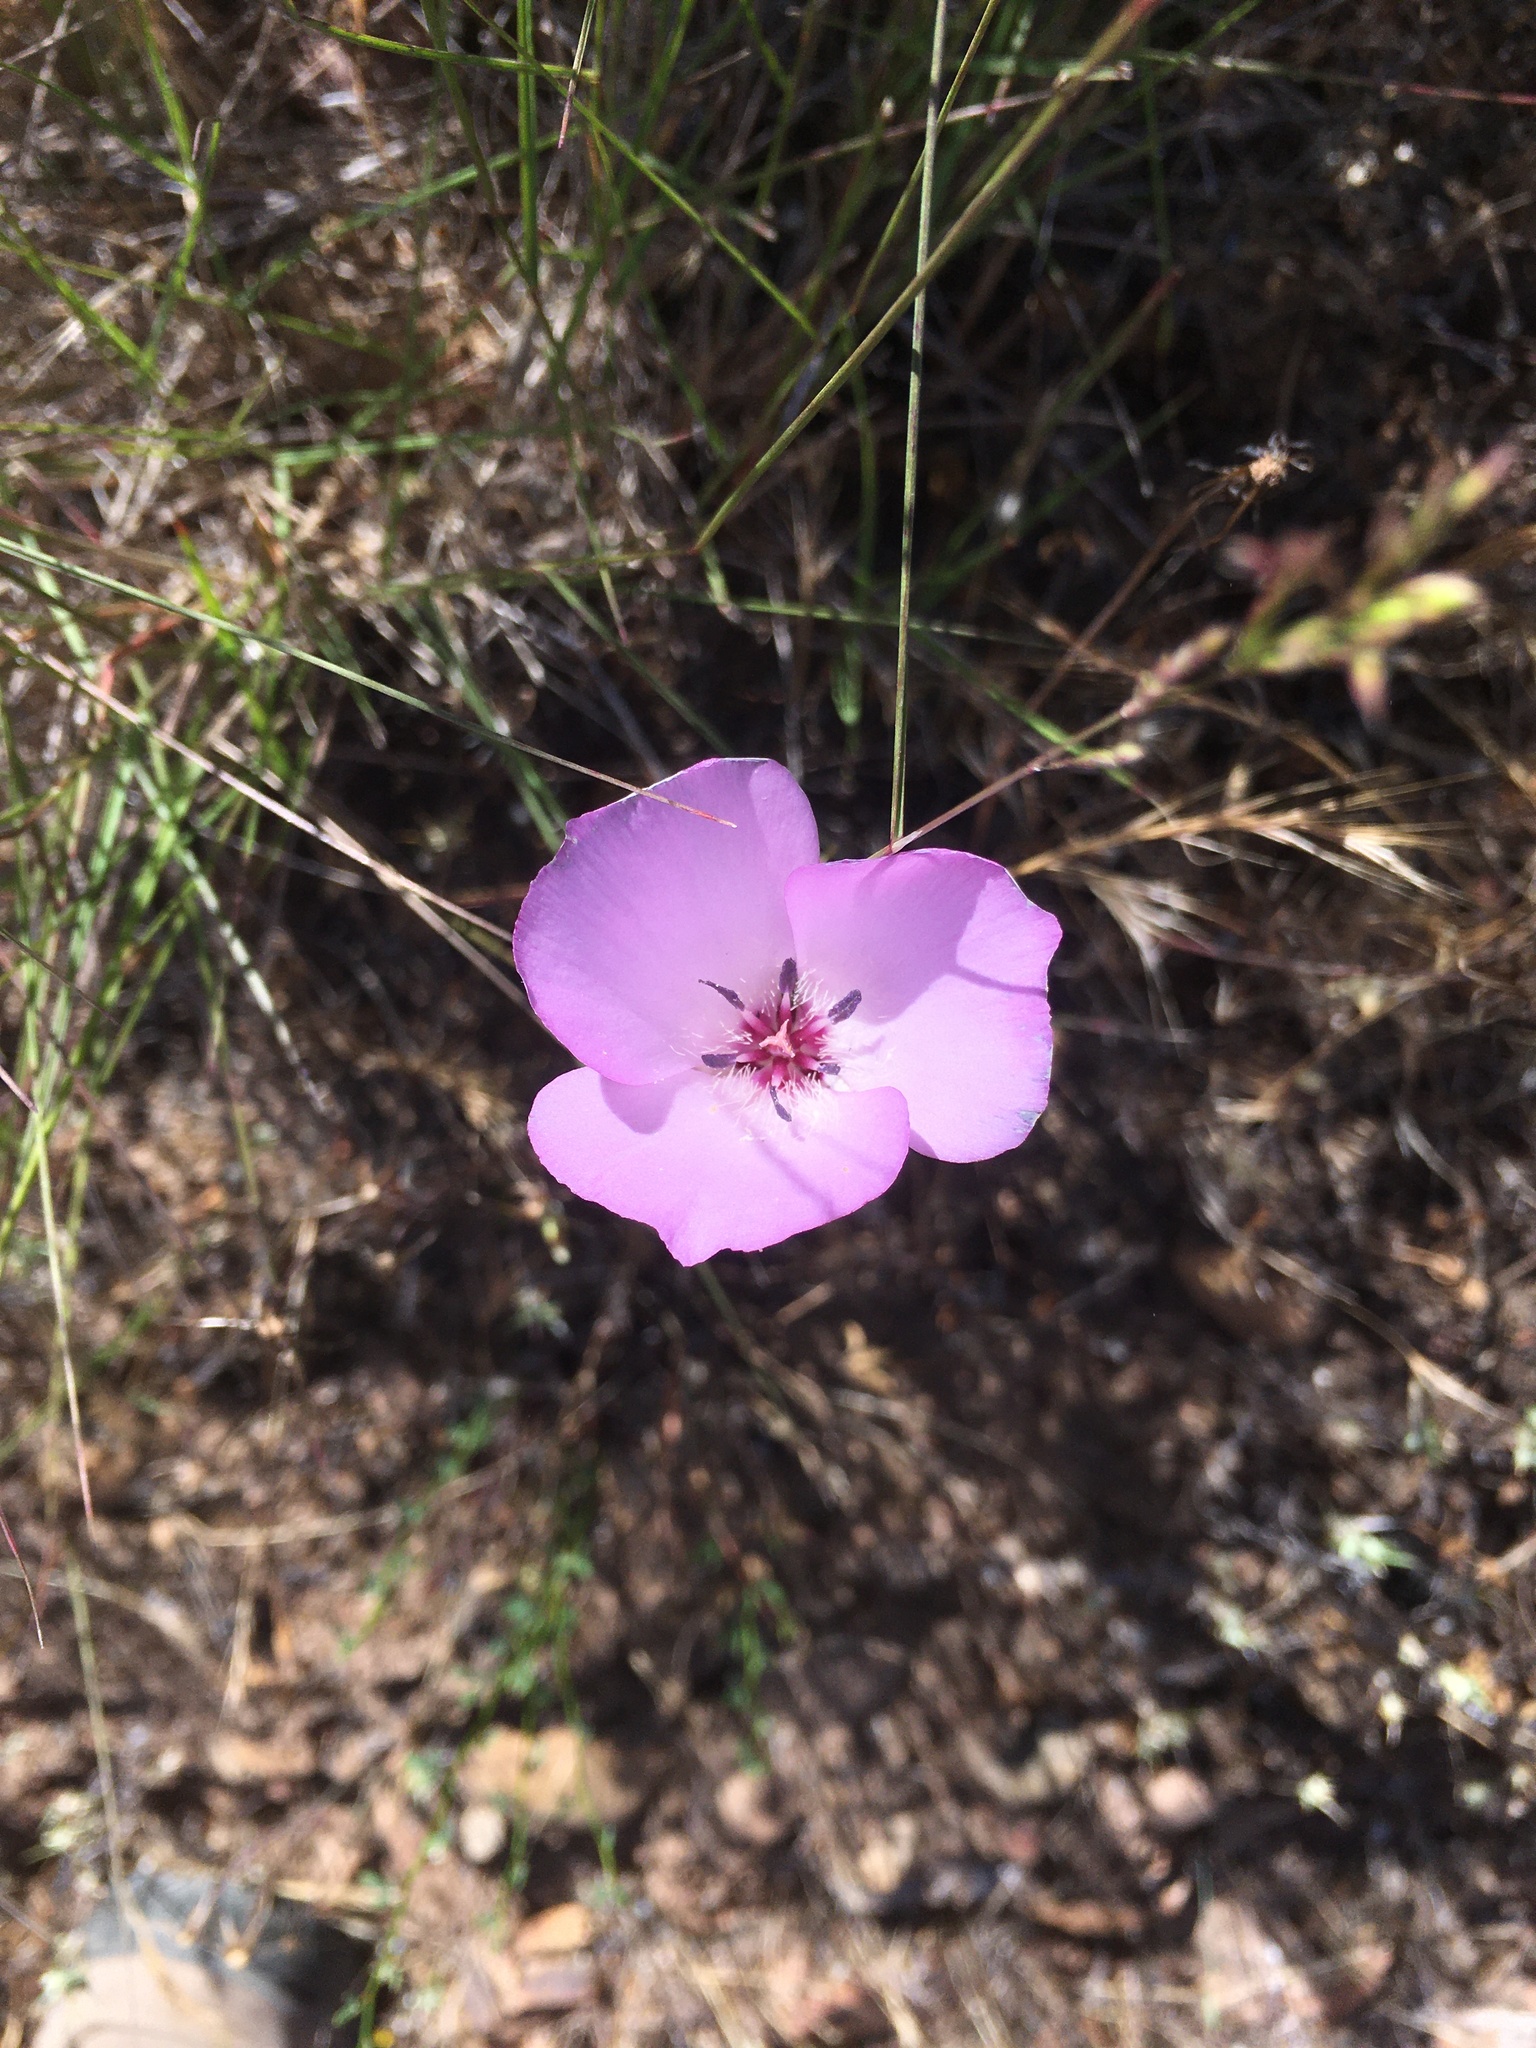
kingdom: Plantae
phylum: Tracheophyta
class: Liliopsida
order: Liliales
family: Liliaceae
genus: Calochortus
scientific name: Calochortus splendens
